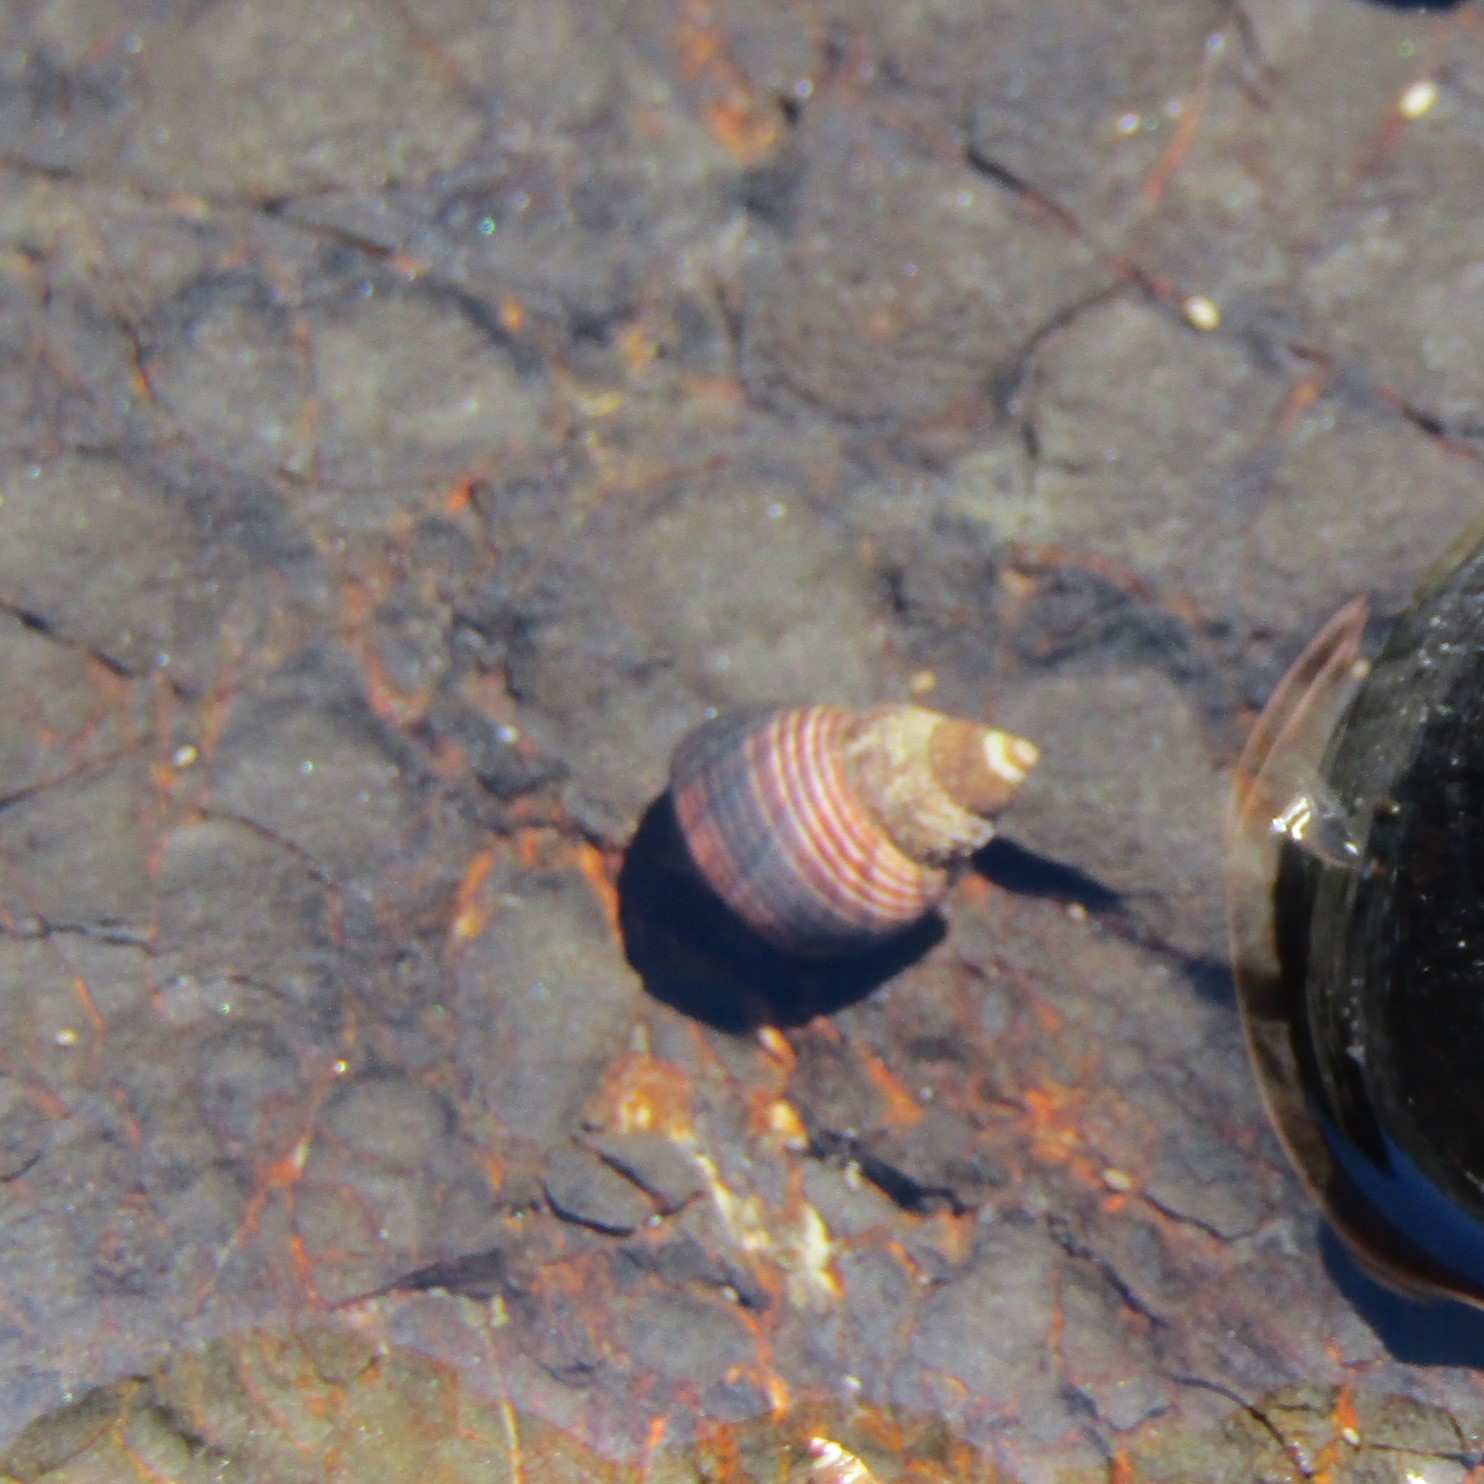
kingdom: Animalia
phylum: Mollusca
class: Gastropoda
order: Littorinimorpha
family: Littorinidae
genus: Austrolittorina
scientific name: Austrolittorina cincta
